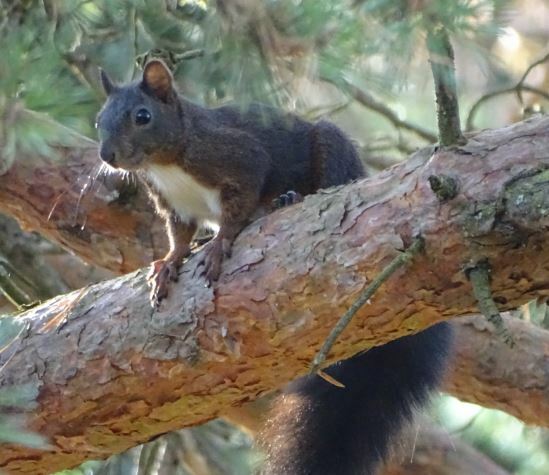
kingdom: Animalia
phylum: Chordata
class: Mammalia
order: Rodentia
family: Sciuridae
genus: Sciurus
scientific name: Sciurus vulgaris
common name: Eurasian red squirrel
